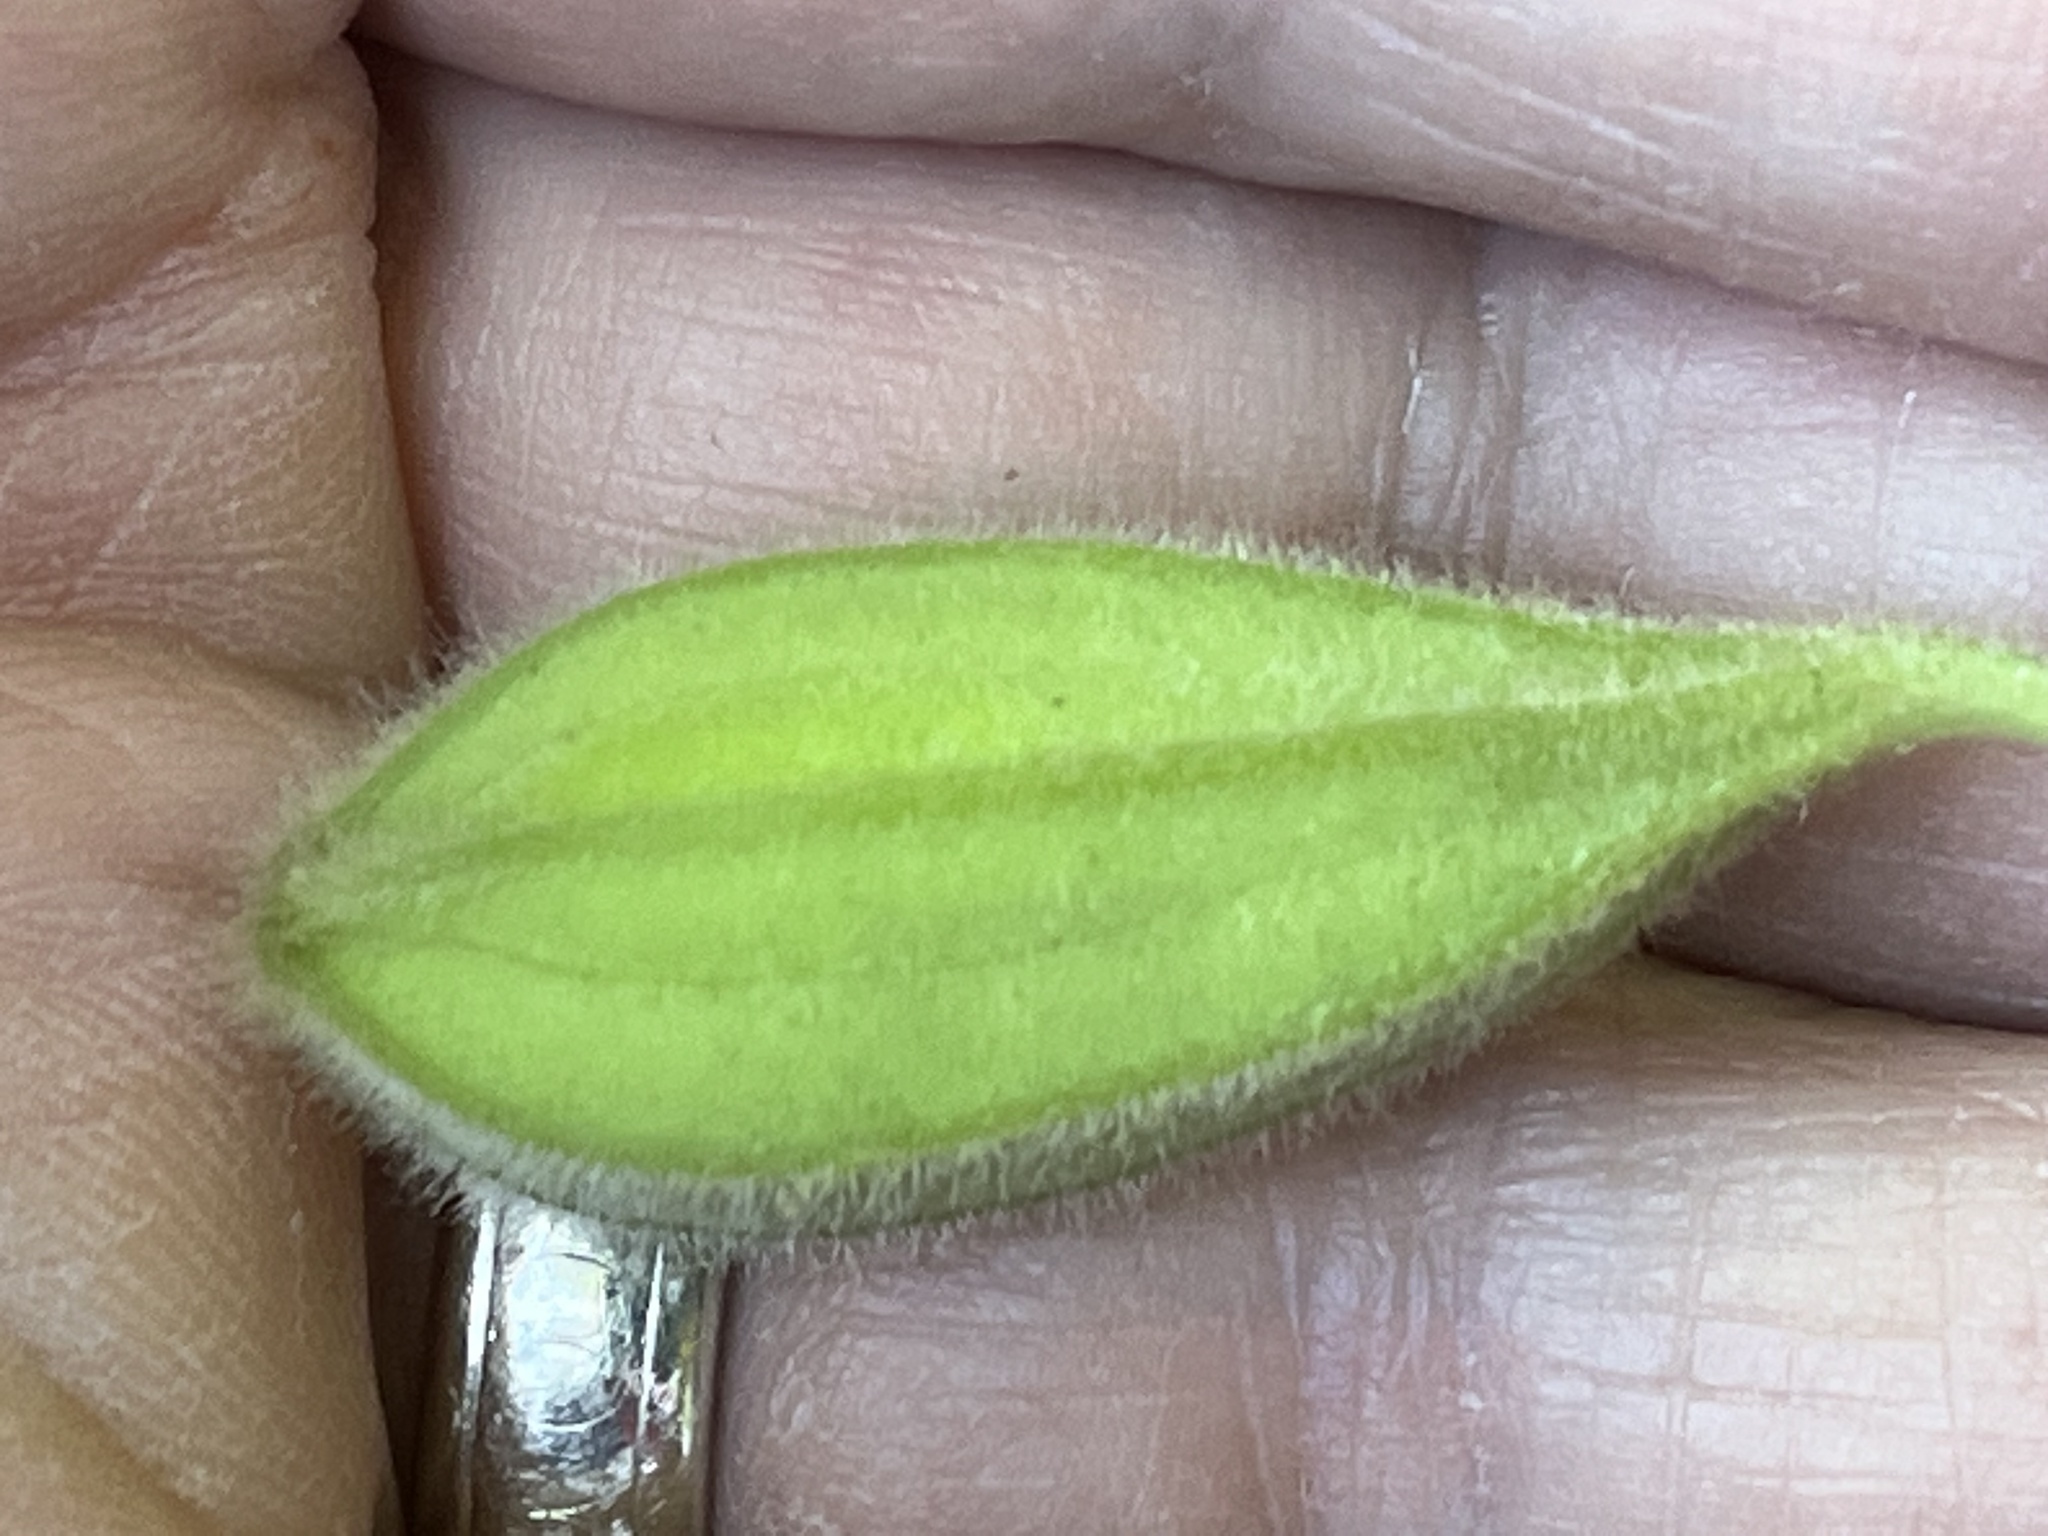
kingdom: Plantae
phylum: Tracheophyta
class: Magnoliopsida
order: Piperales
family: Aristolochiaceae
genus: Isotrema
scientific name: Isotrema tomentosum
